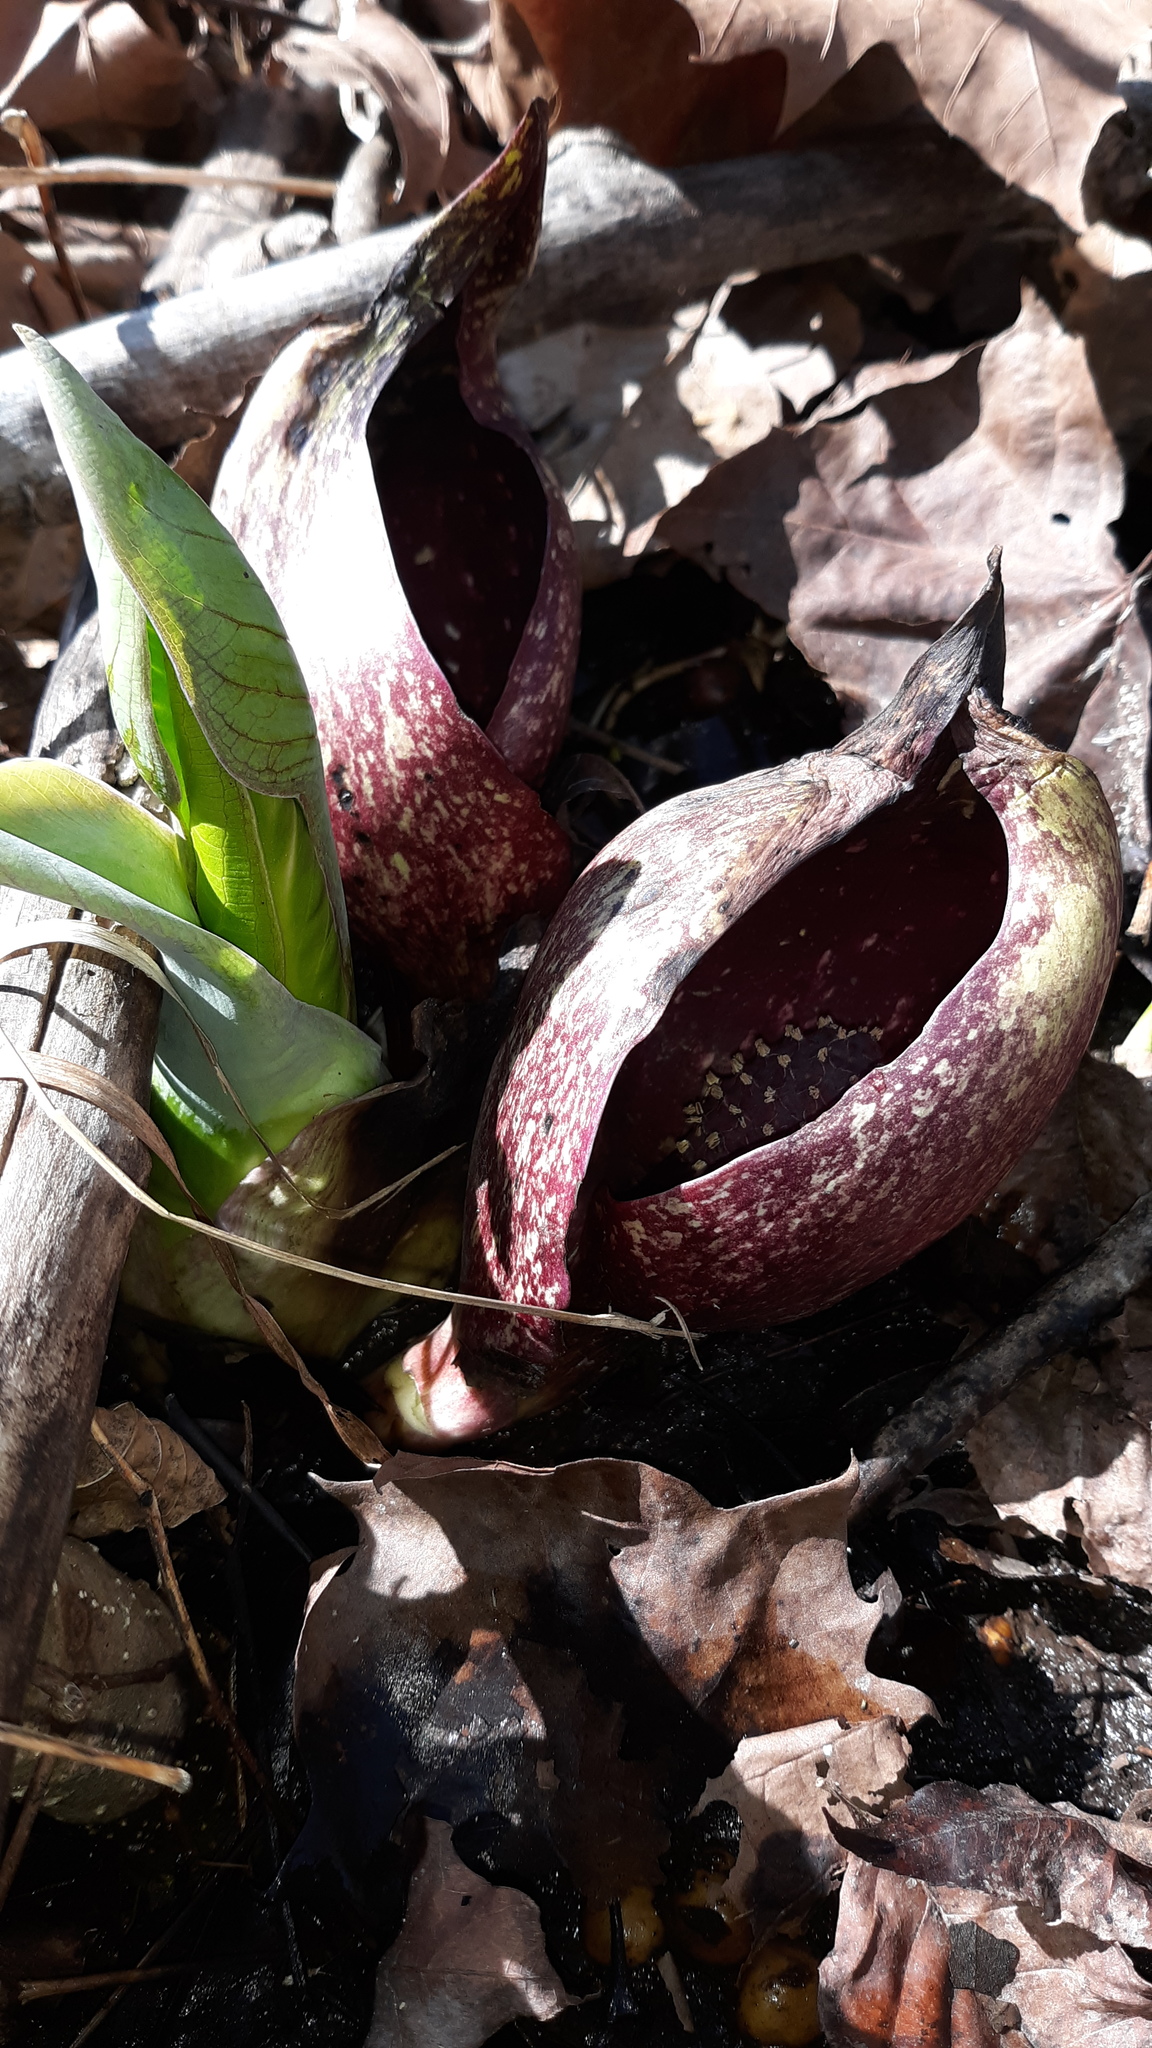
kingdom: Plantae
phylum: Tracheophyta
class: Liliopsida
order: Alismatales
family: Araceae
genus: Symplocarpus
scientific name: Symplocarpus foetidus
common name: Eastern skunk cabbage
